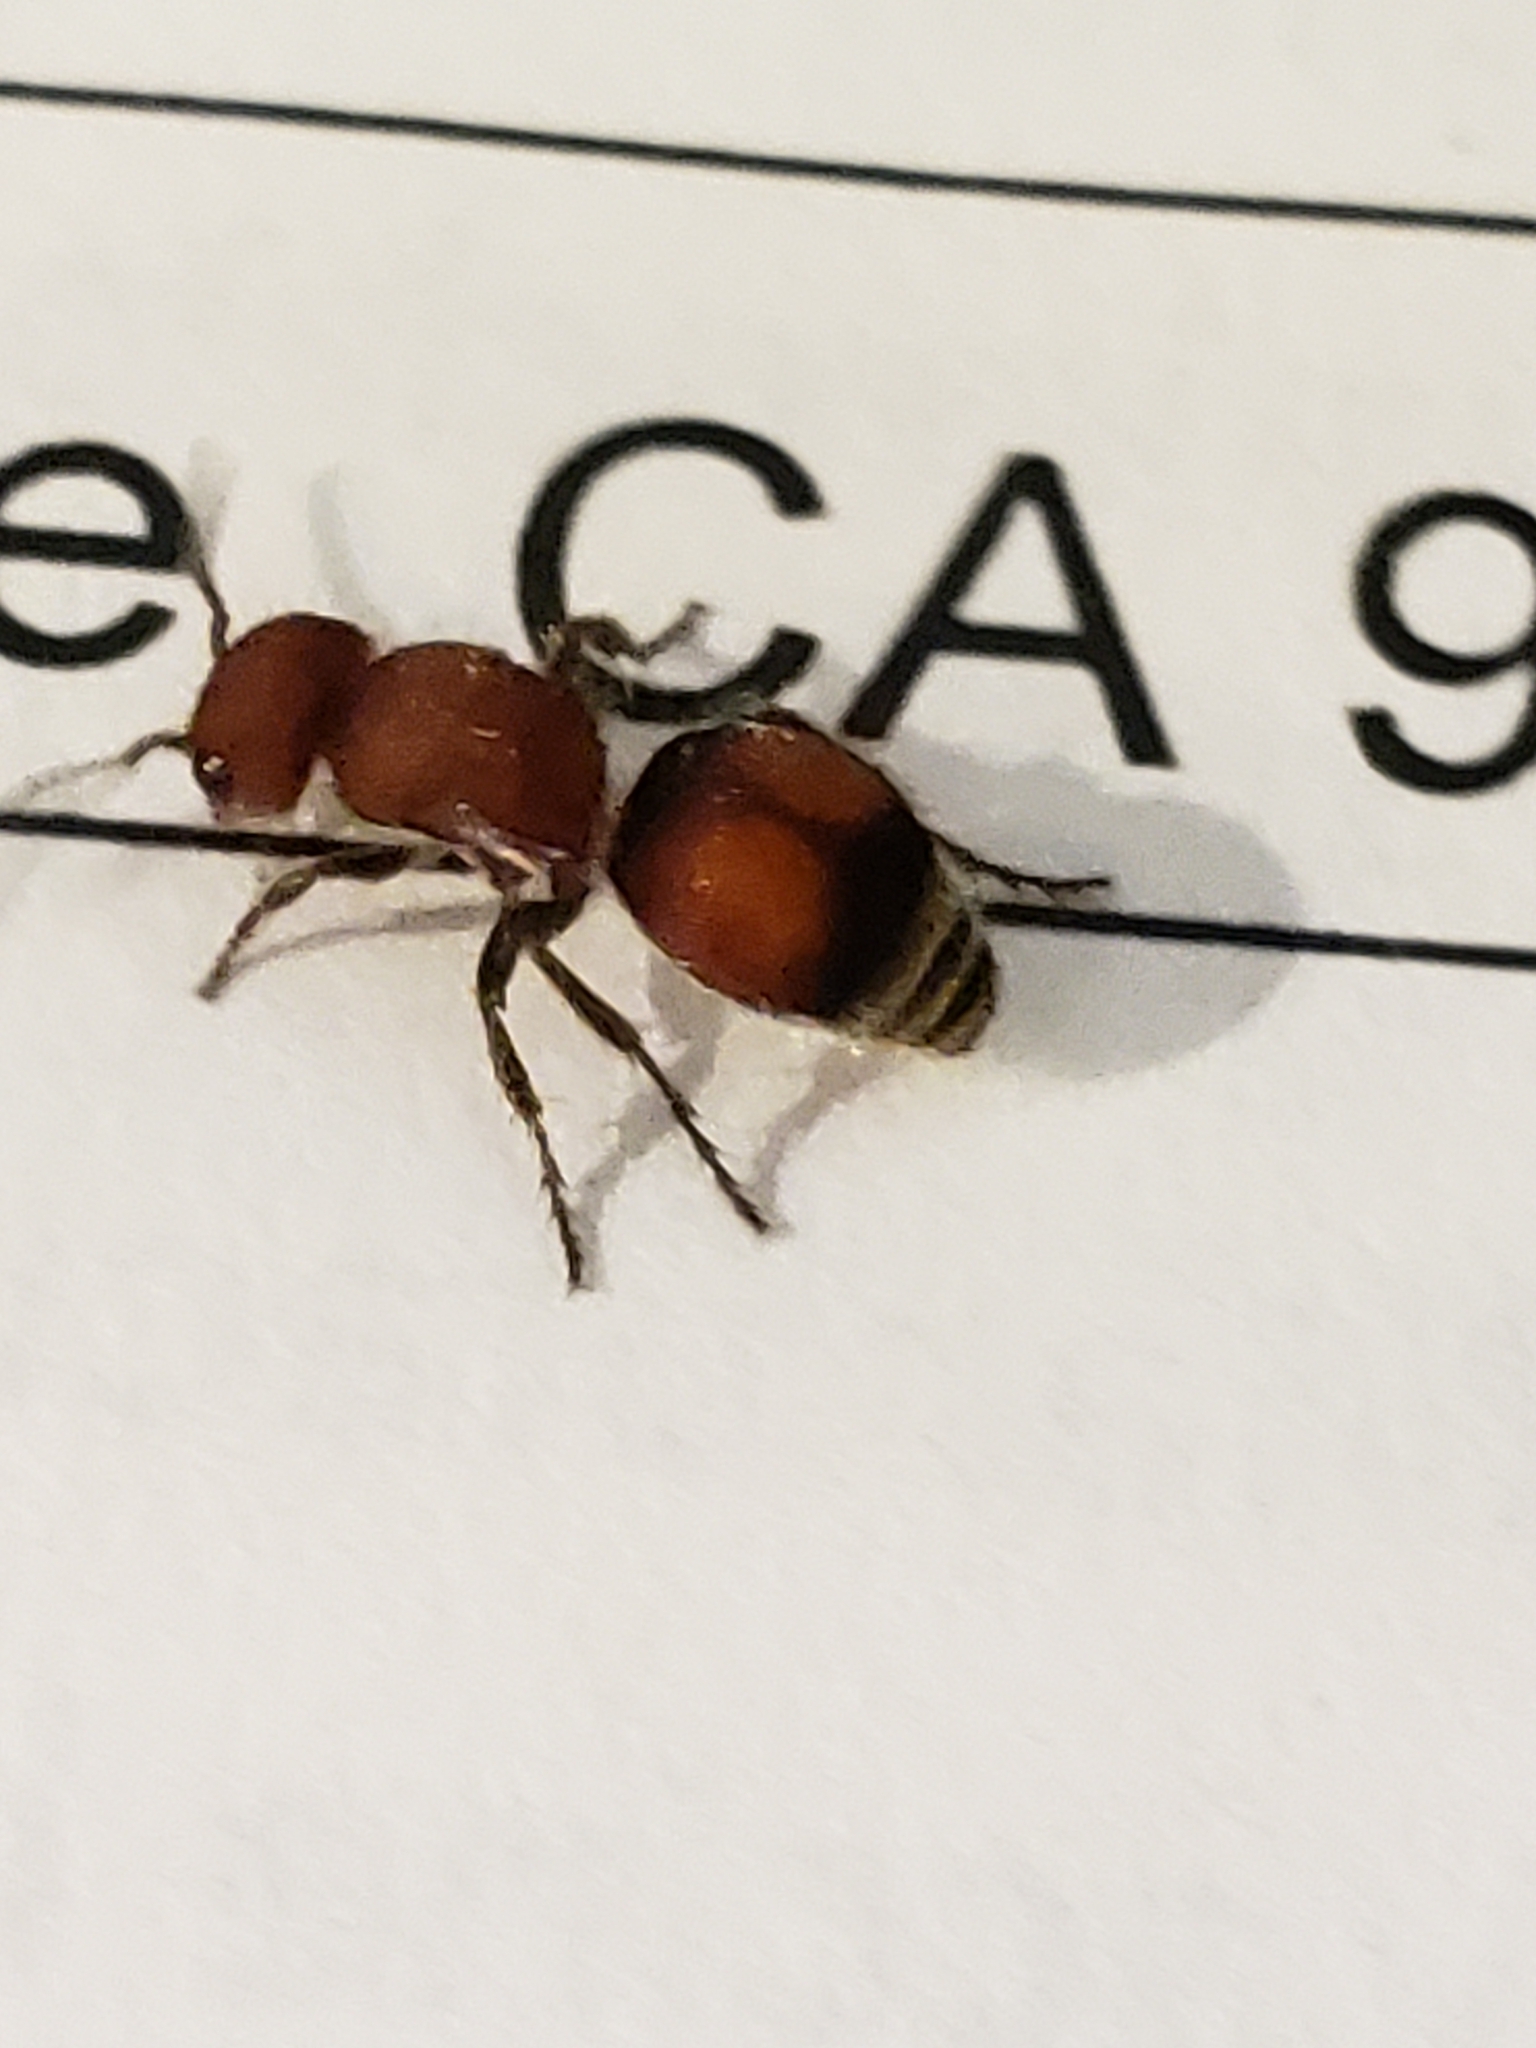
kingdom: Animalia
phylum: Arthropoda
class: Insecta
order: Hymenoptera
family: Mutillidae
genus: Pseudomethoca
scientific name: Pseudomethoca
